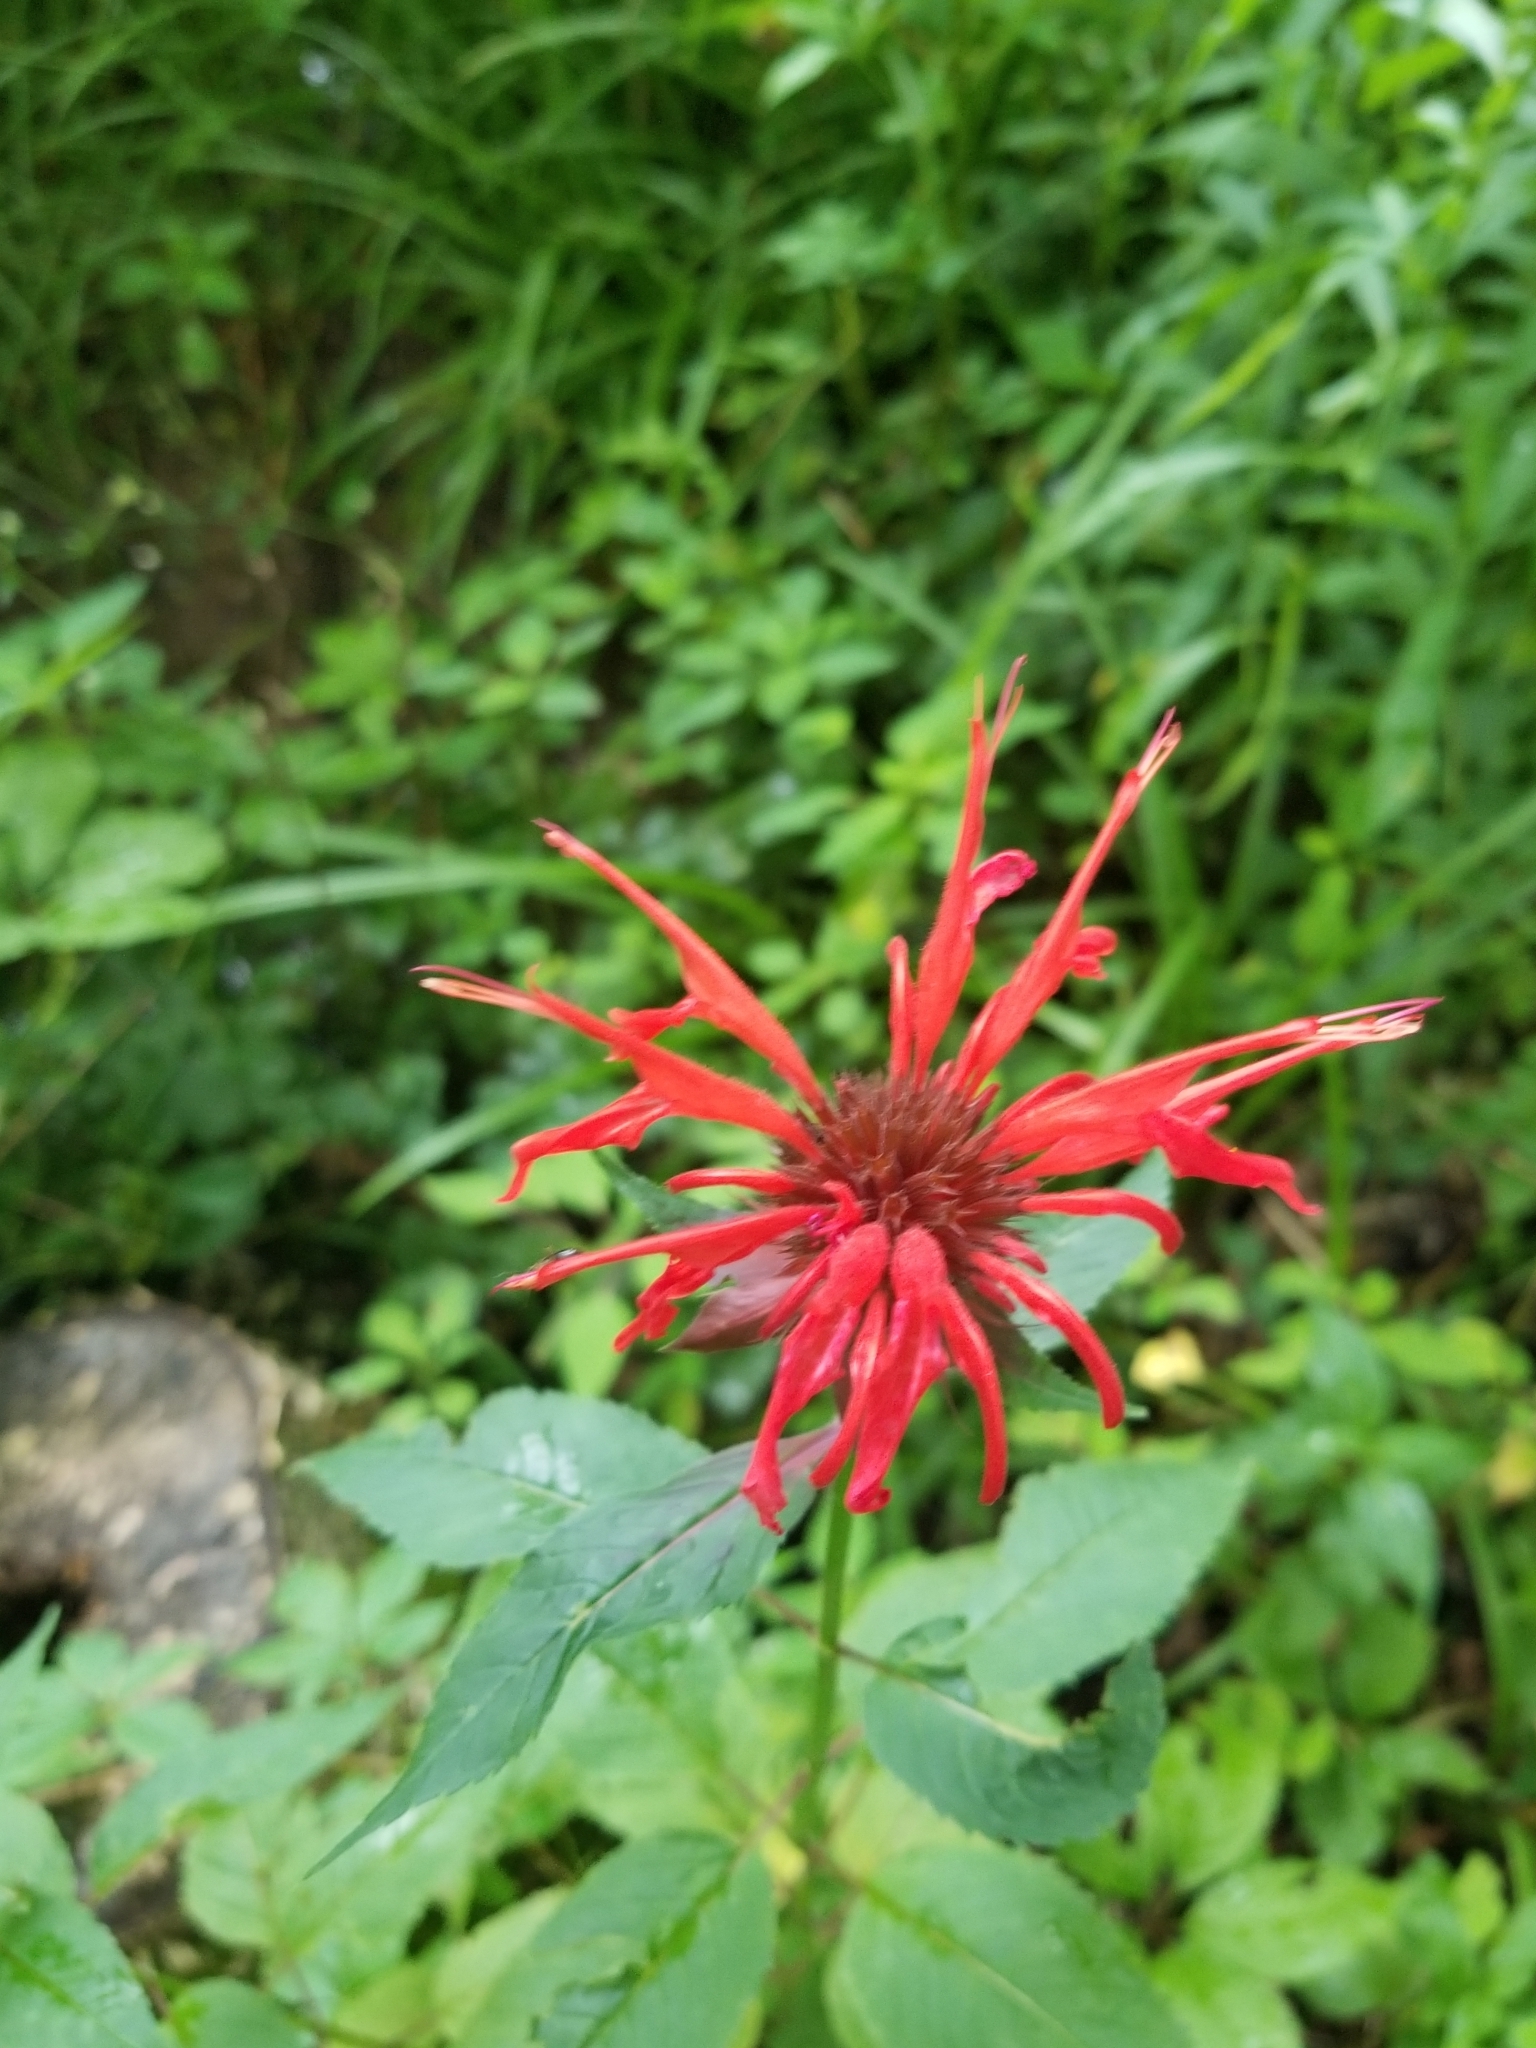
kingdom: Plantae
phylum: Tracheophyta
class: Magnoliopsida
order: Lamiales
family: Lamiaceae
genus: Monarda
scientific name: Monarda didyma
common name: Beebalm
